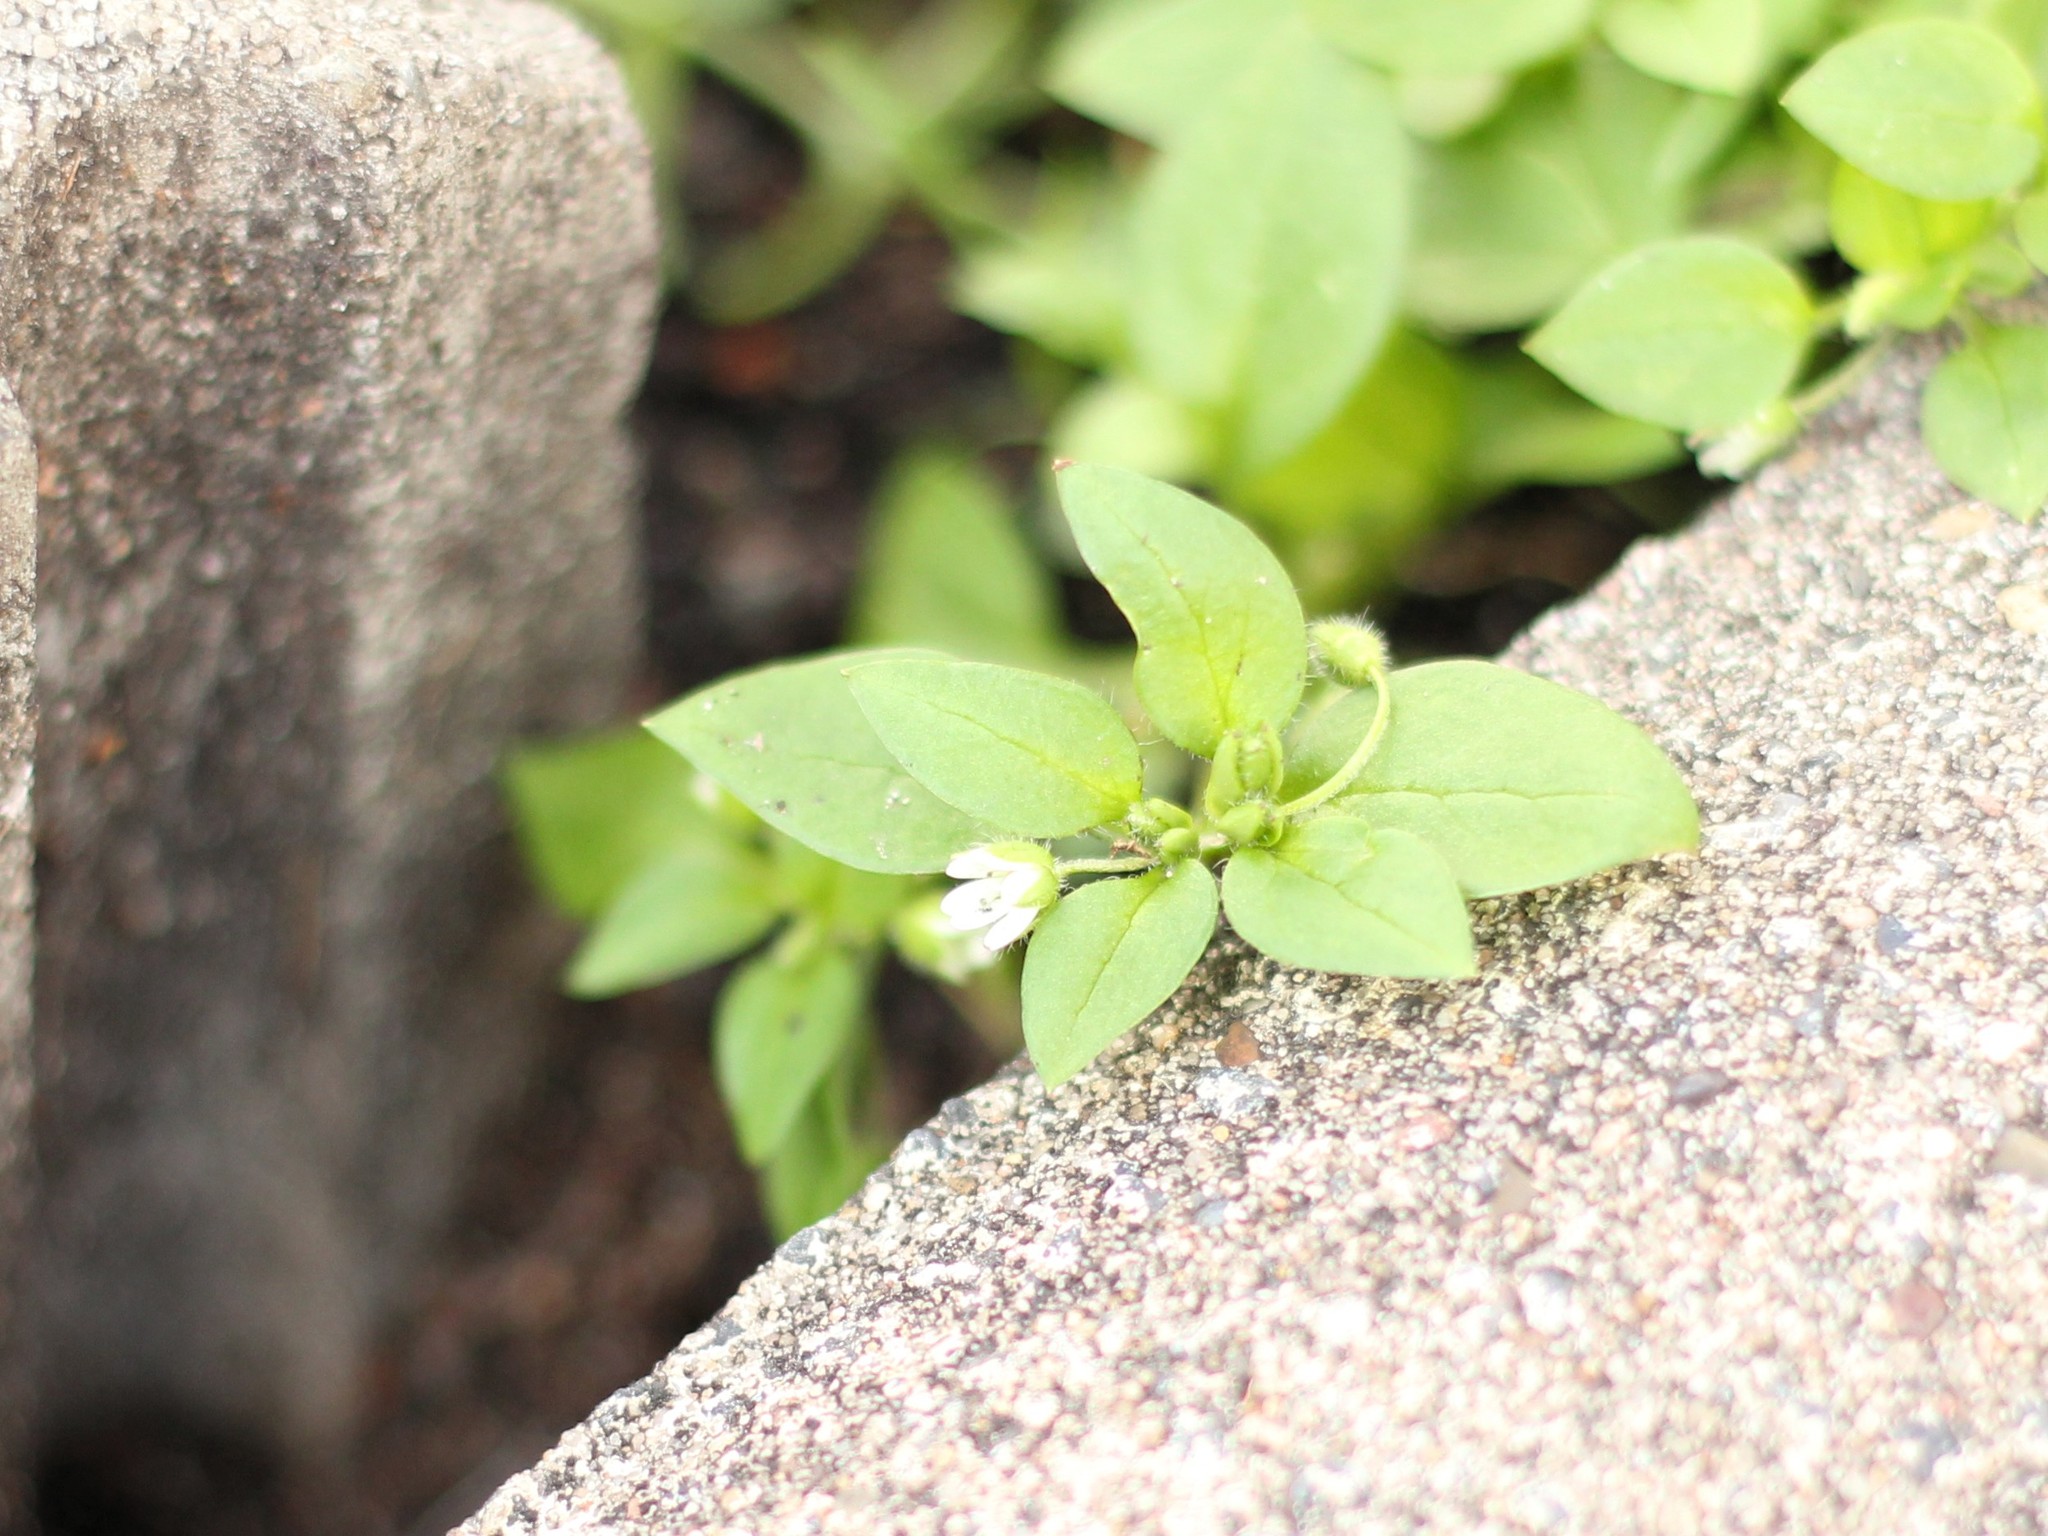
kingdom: Plantae
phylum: Tracheophyta
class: Magnoliopsida
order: Caryophyllales
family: Caryophyllaceae
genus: Stellaria
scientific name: Stellaria media
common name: Common chickweed
